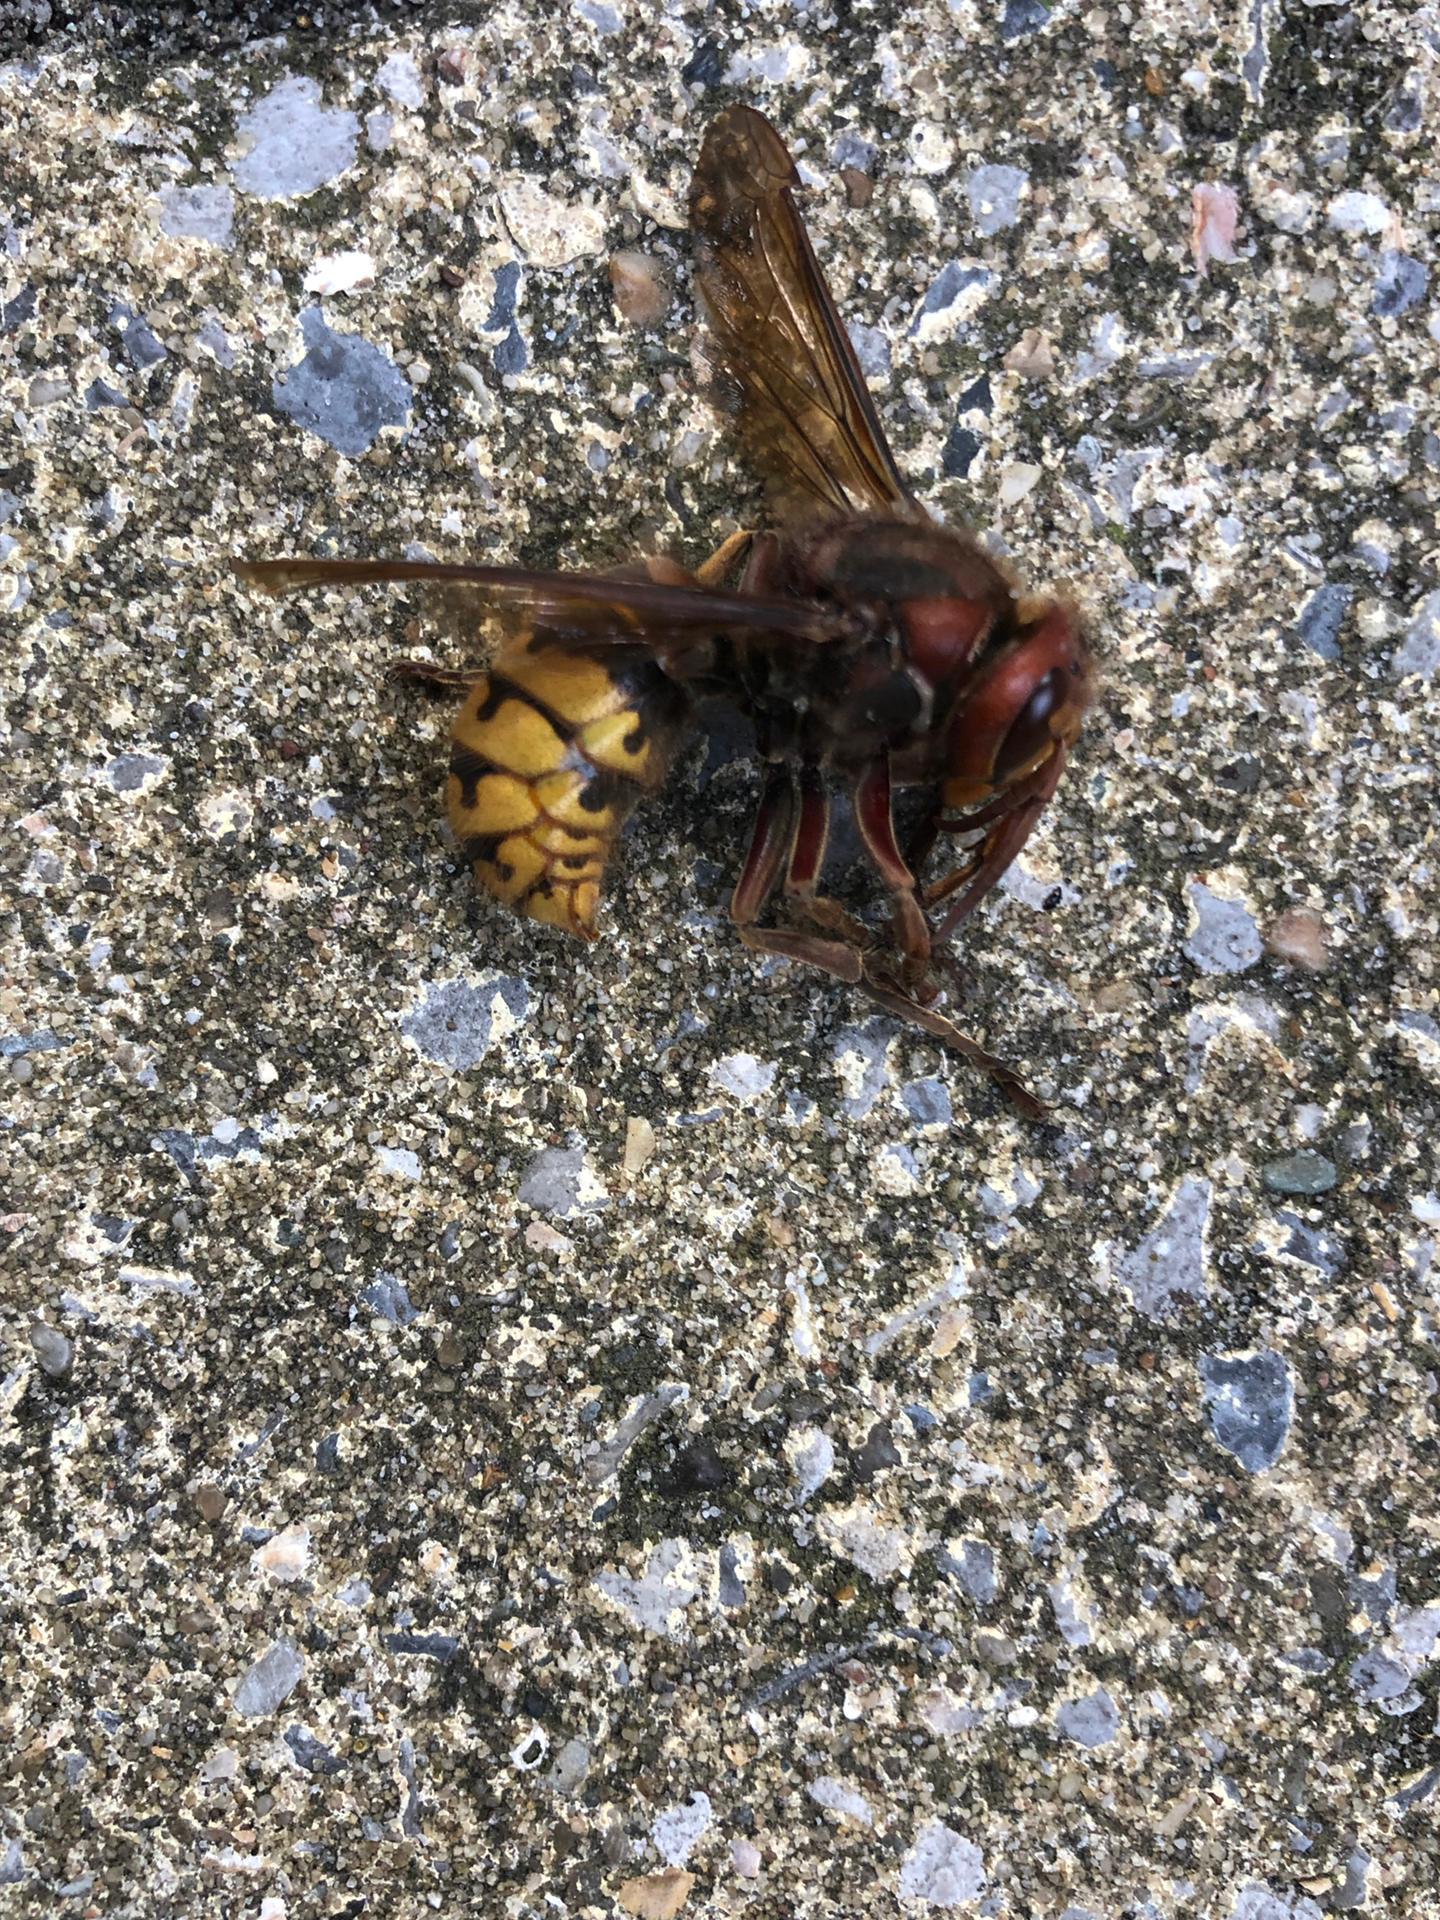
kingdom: Animalia
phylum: Arthropoda
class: Insecta
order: Hymenoptera
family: Vespidae
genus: Vespa
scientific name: Vespa crabro
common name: Hornet
